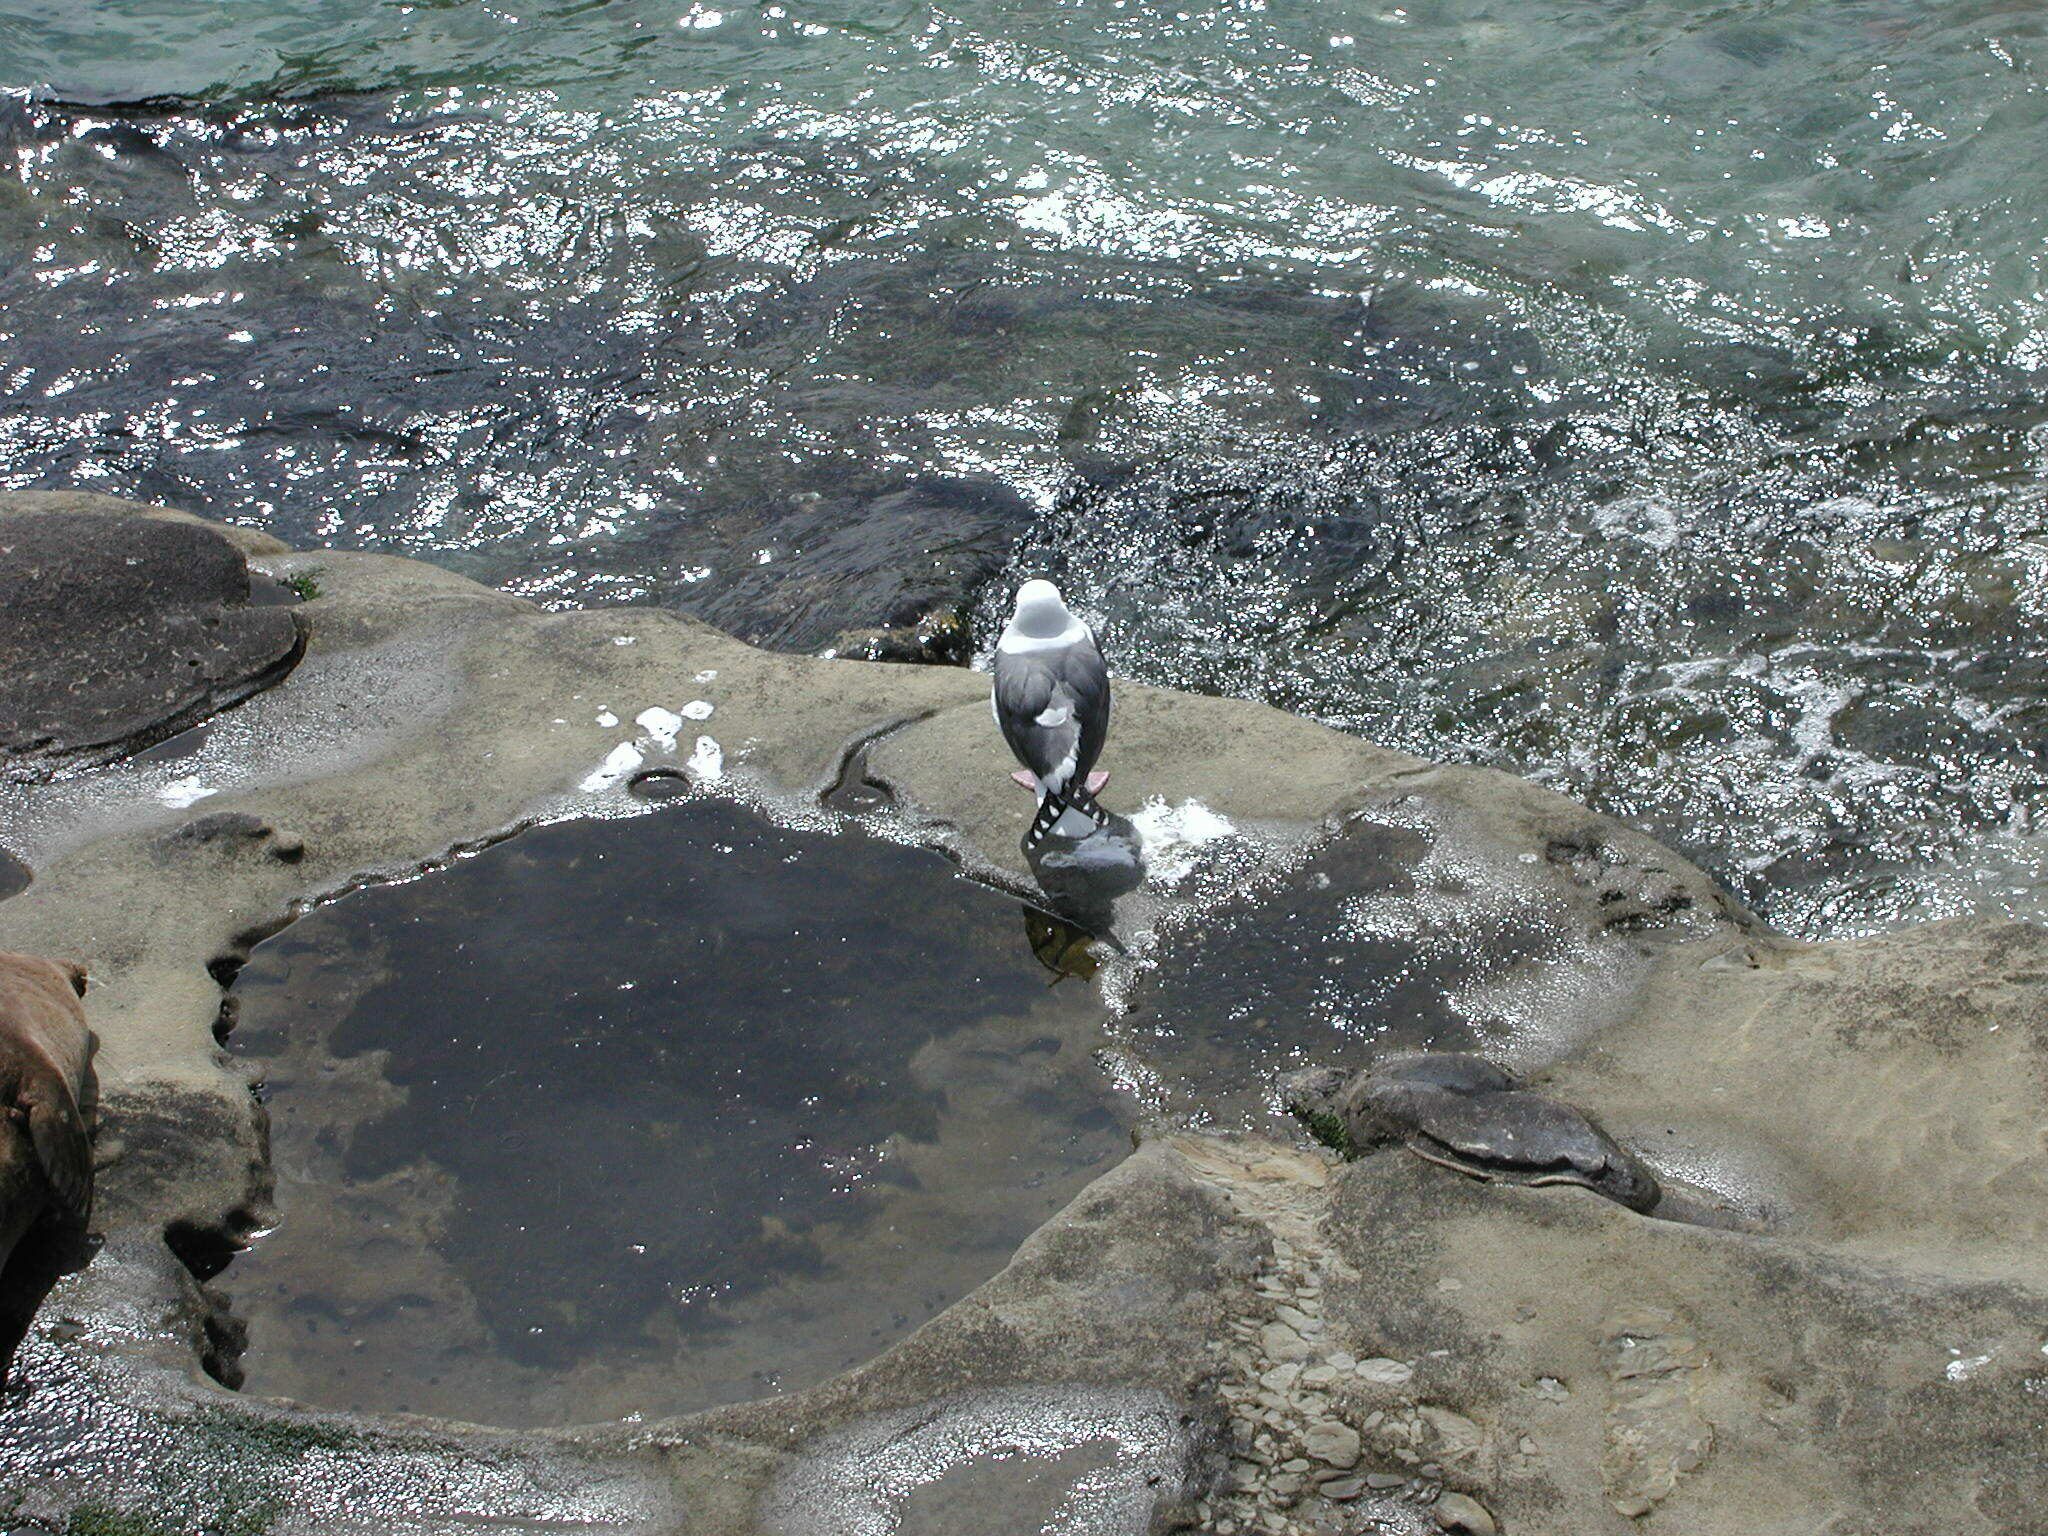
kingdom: Animalia
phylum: Chordata
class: Aves
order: Charadriiformes
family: Laridae
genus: Larus
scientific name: Larus occidentalis
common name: Western gull
